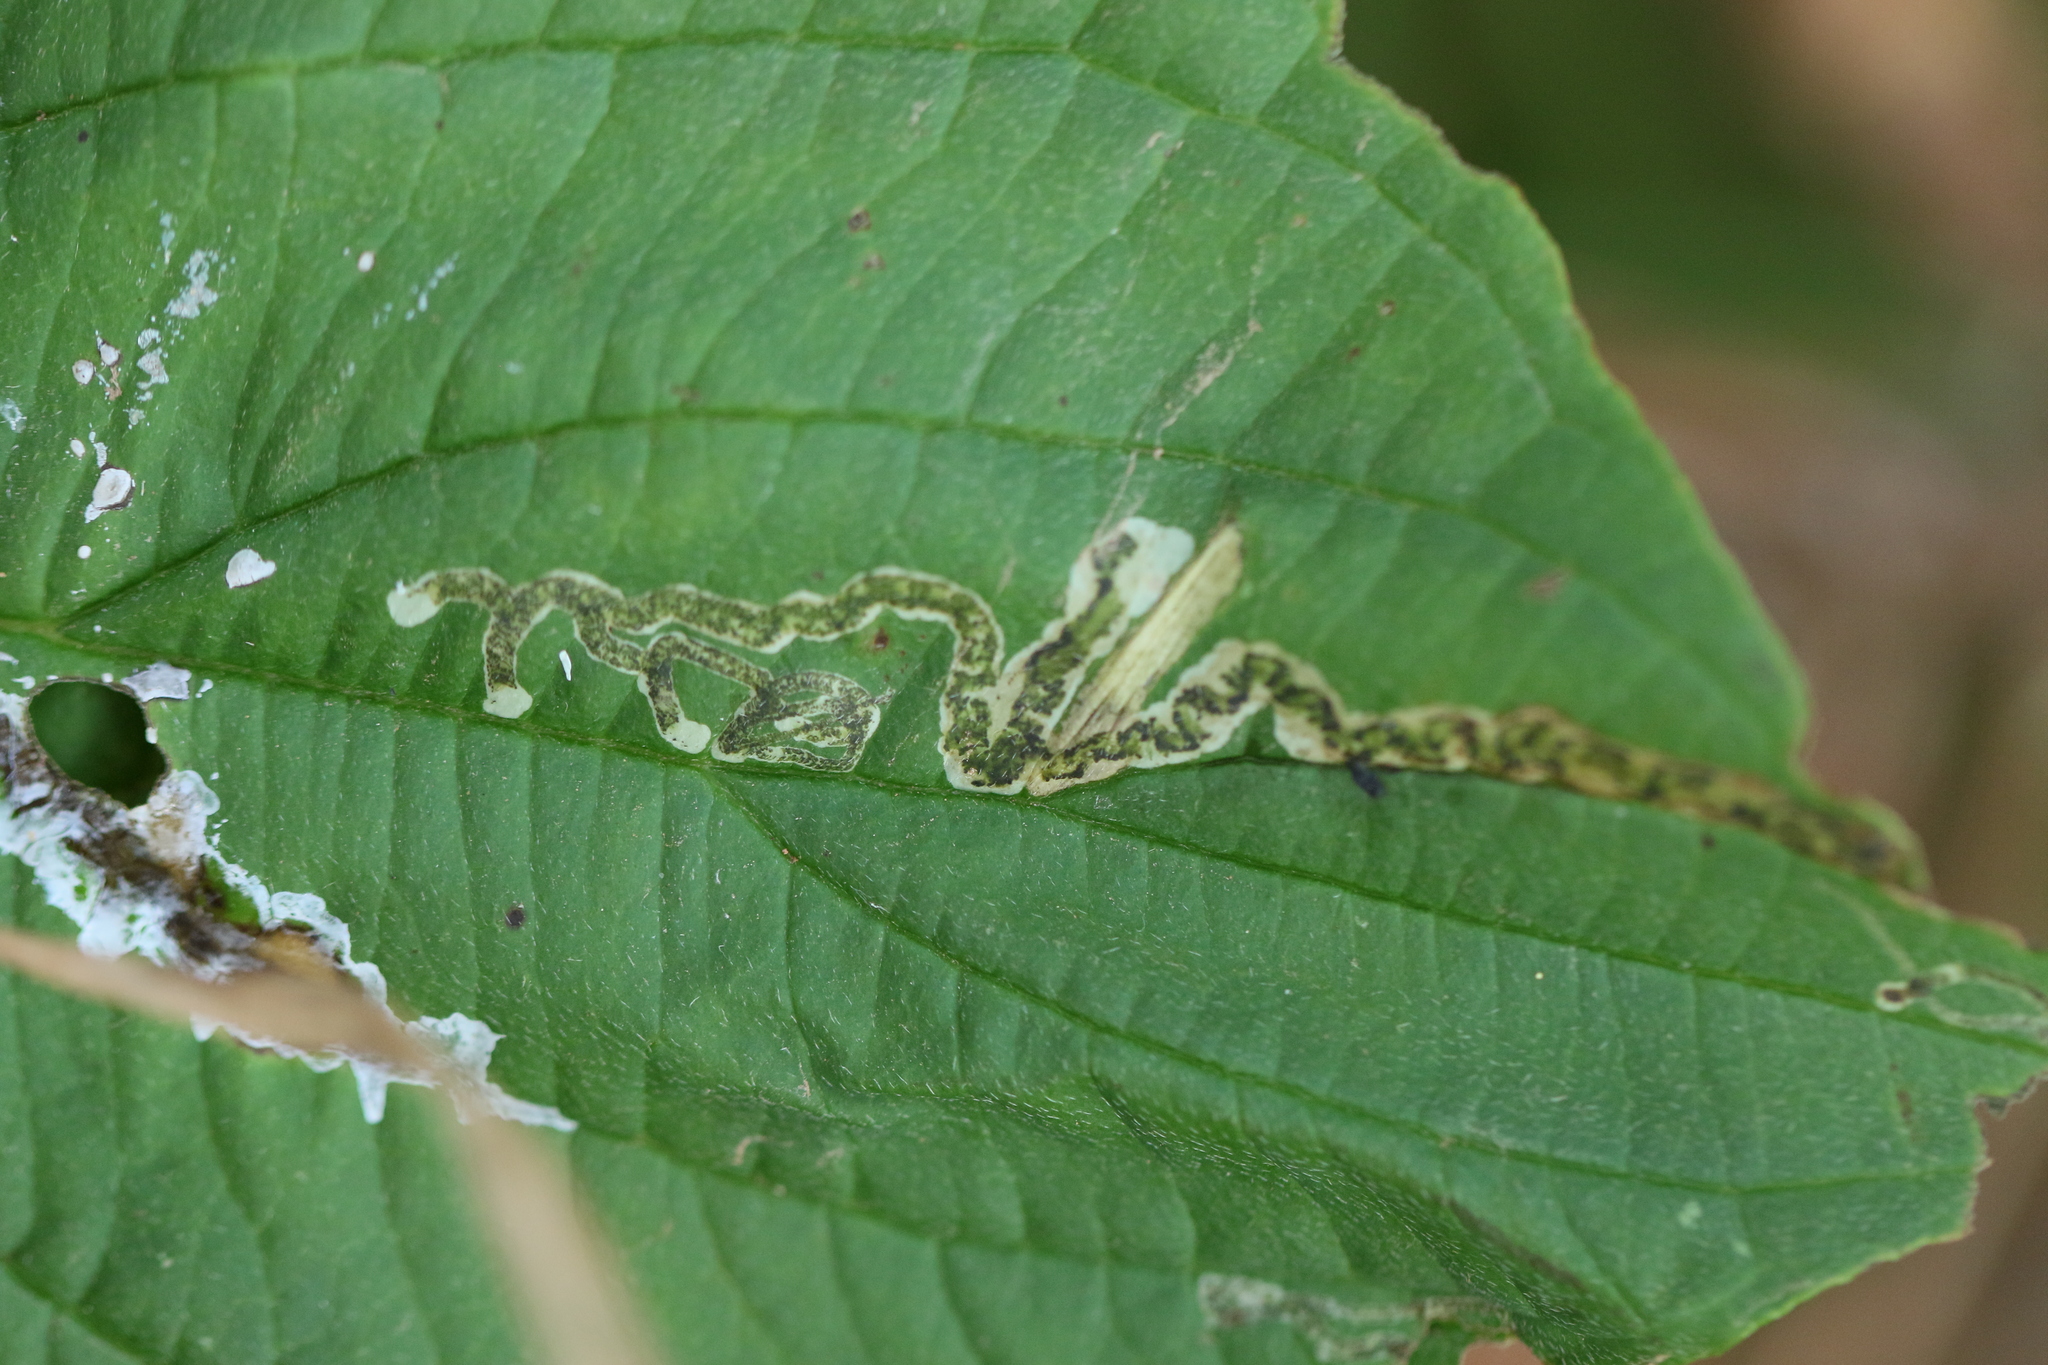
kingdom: Animalia
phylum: Arthropoda
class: Insecta
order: Diptera
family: Agromyzidae
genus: Phytomyza
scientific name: Phytomyza agromyzina
